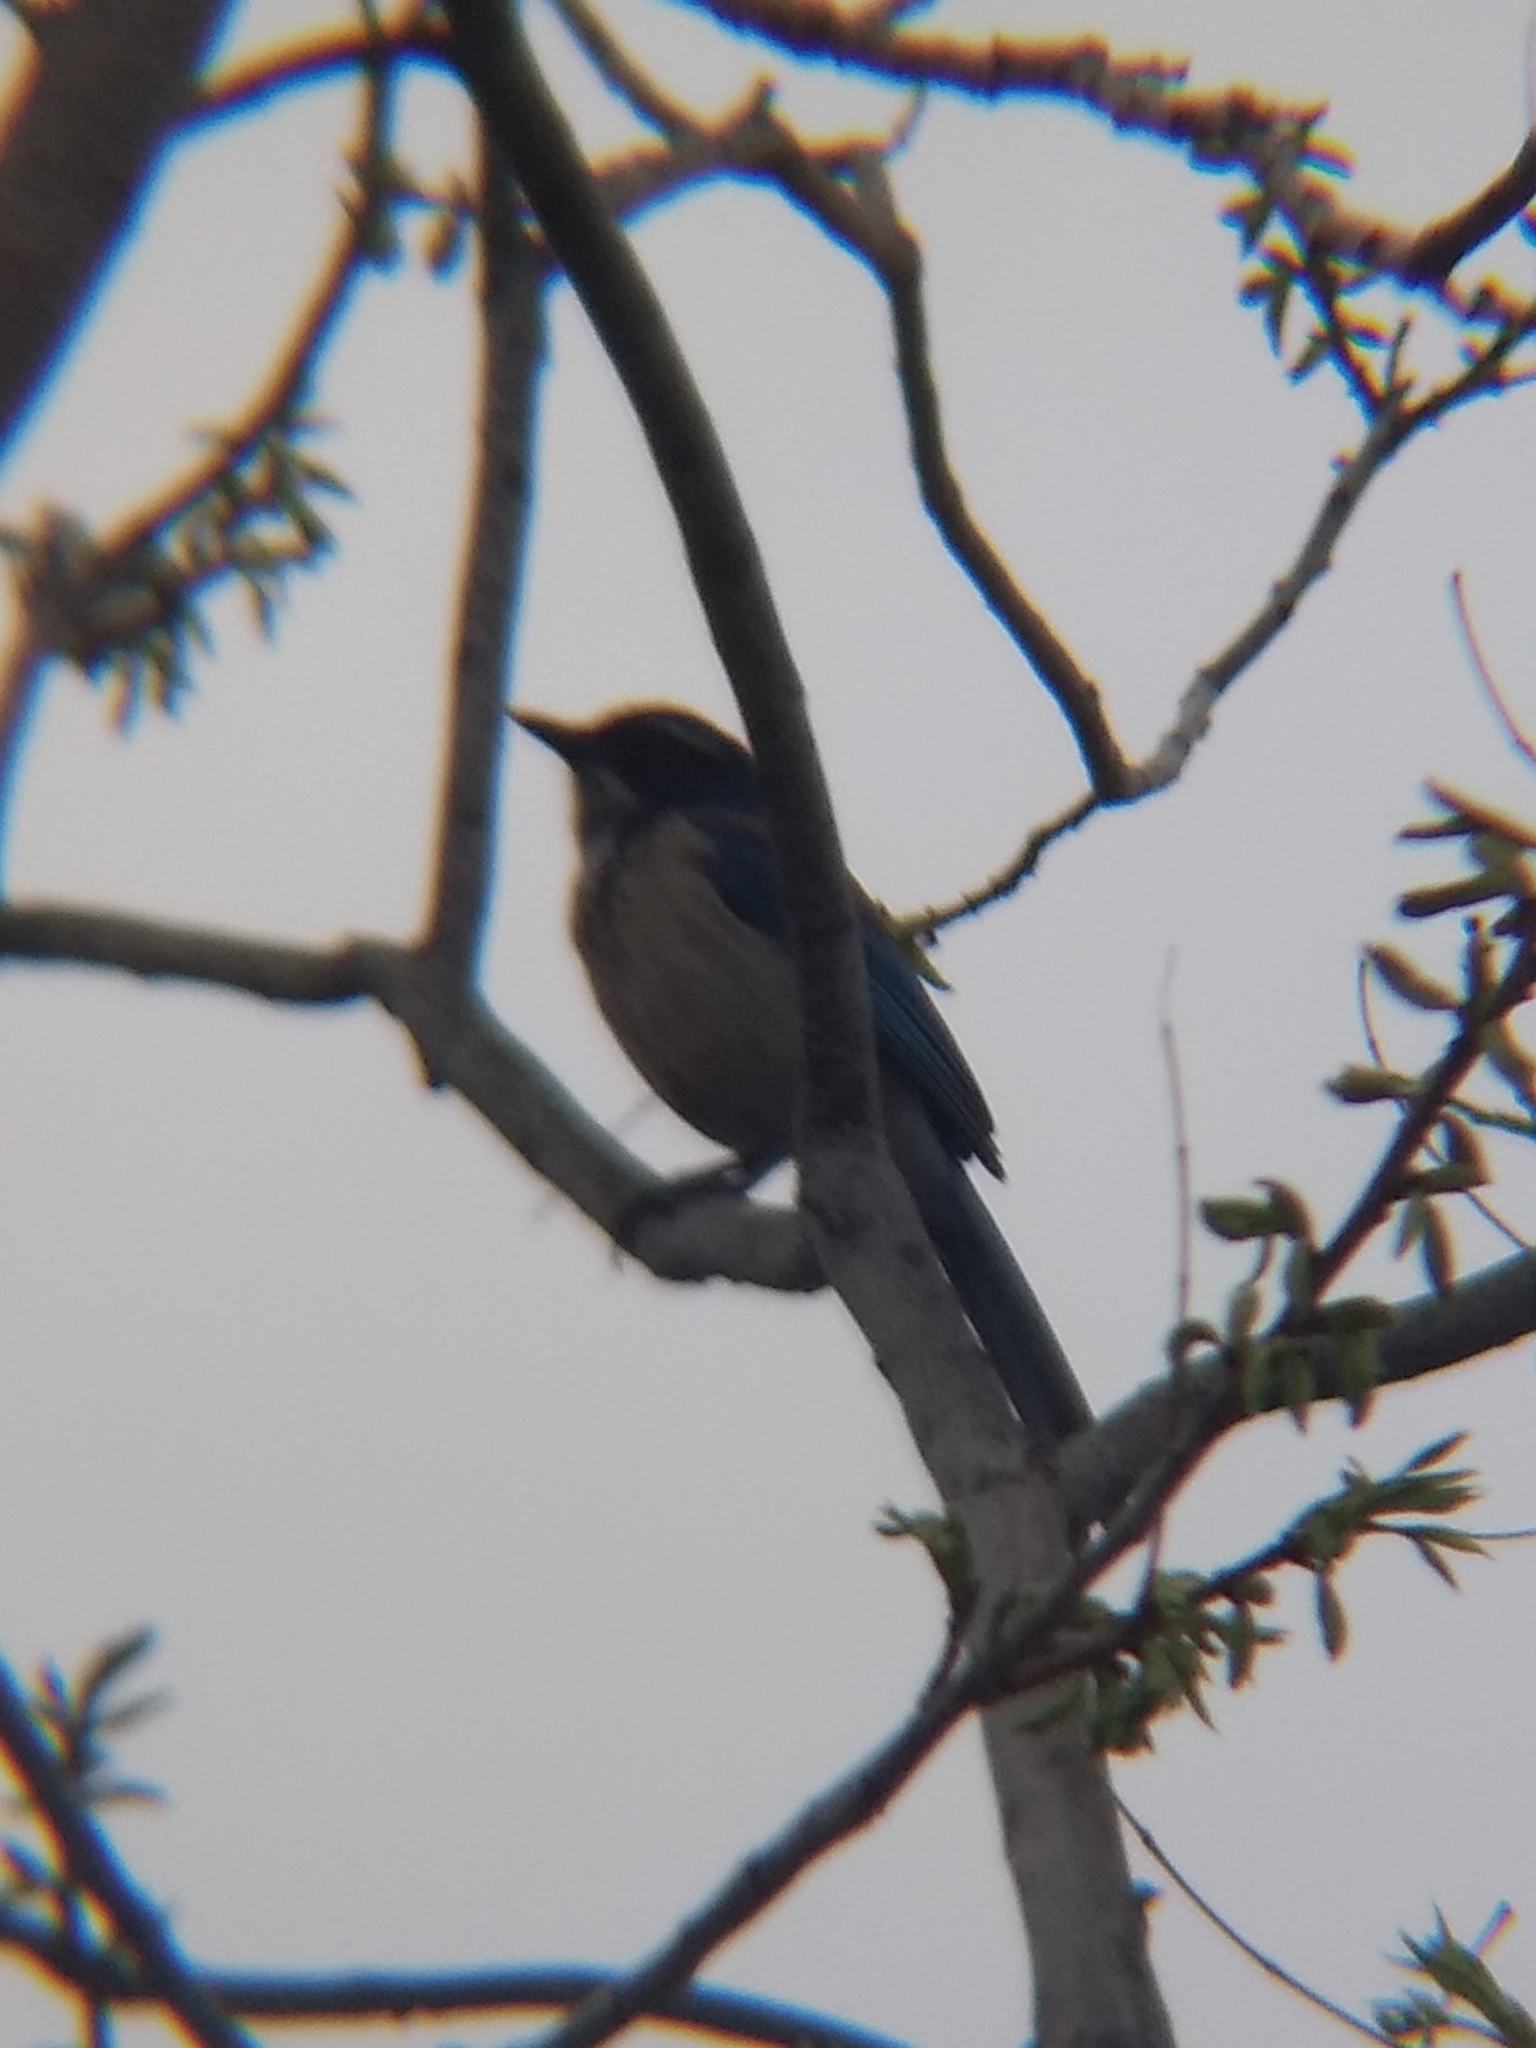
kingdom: Animalia
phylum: Chordata
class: Aves
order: Passeriformes
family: Corvidae
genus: Aphelocoma
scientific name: Aphelocoma californica
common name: California scrub-jay
